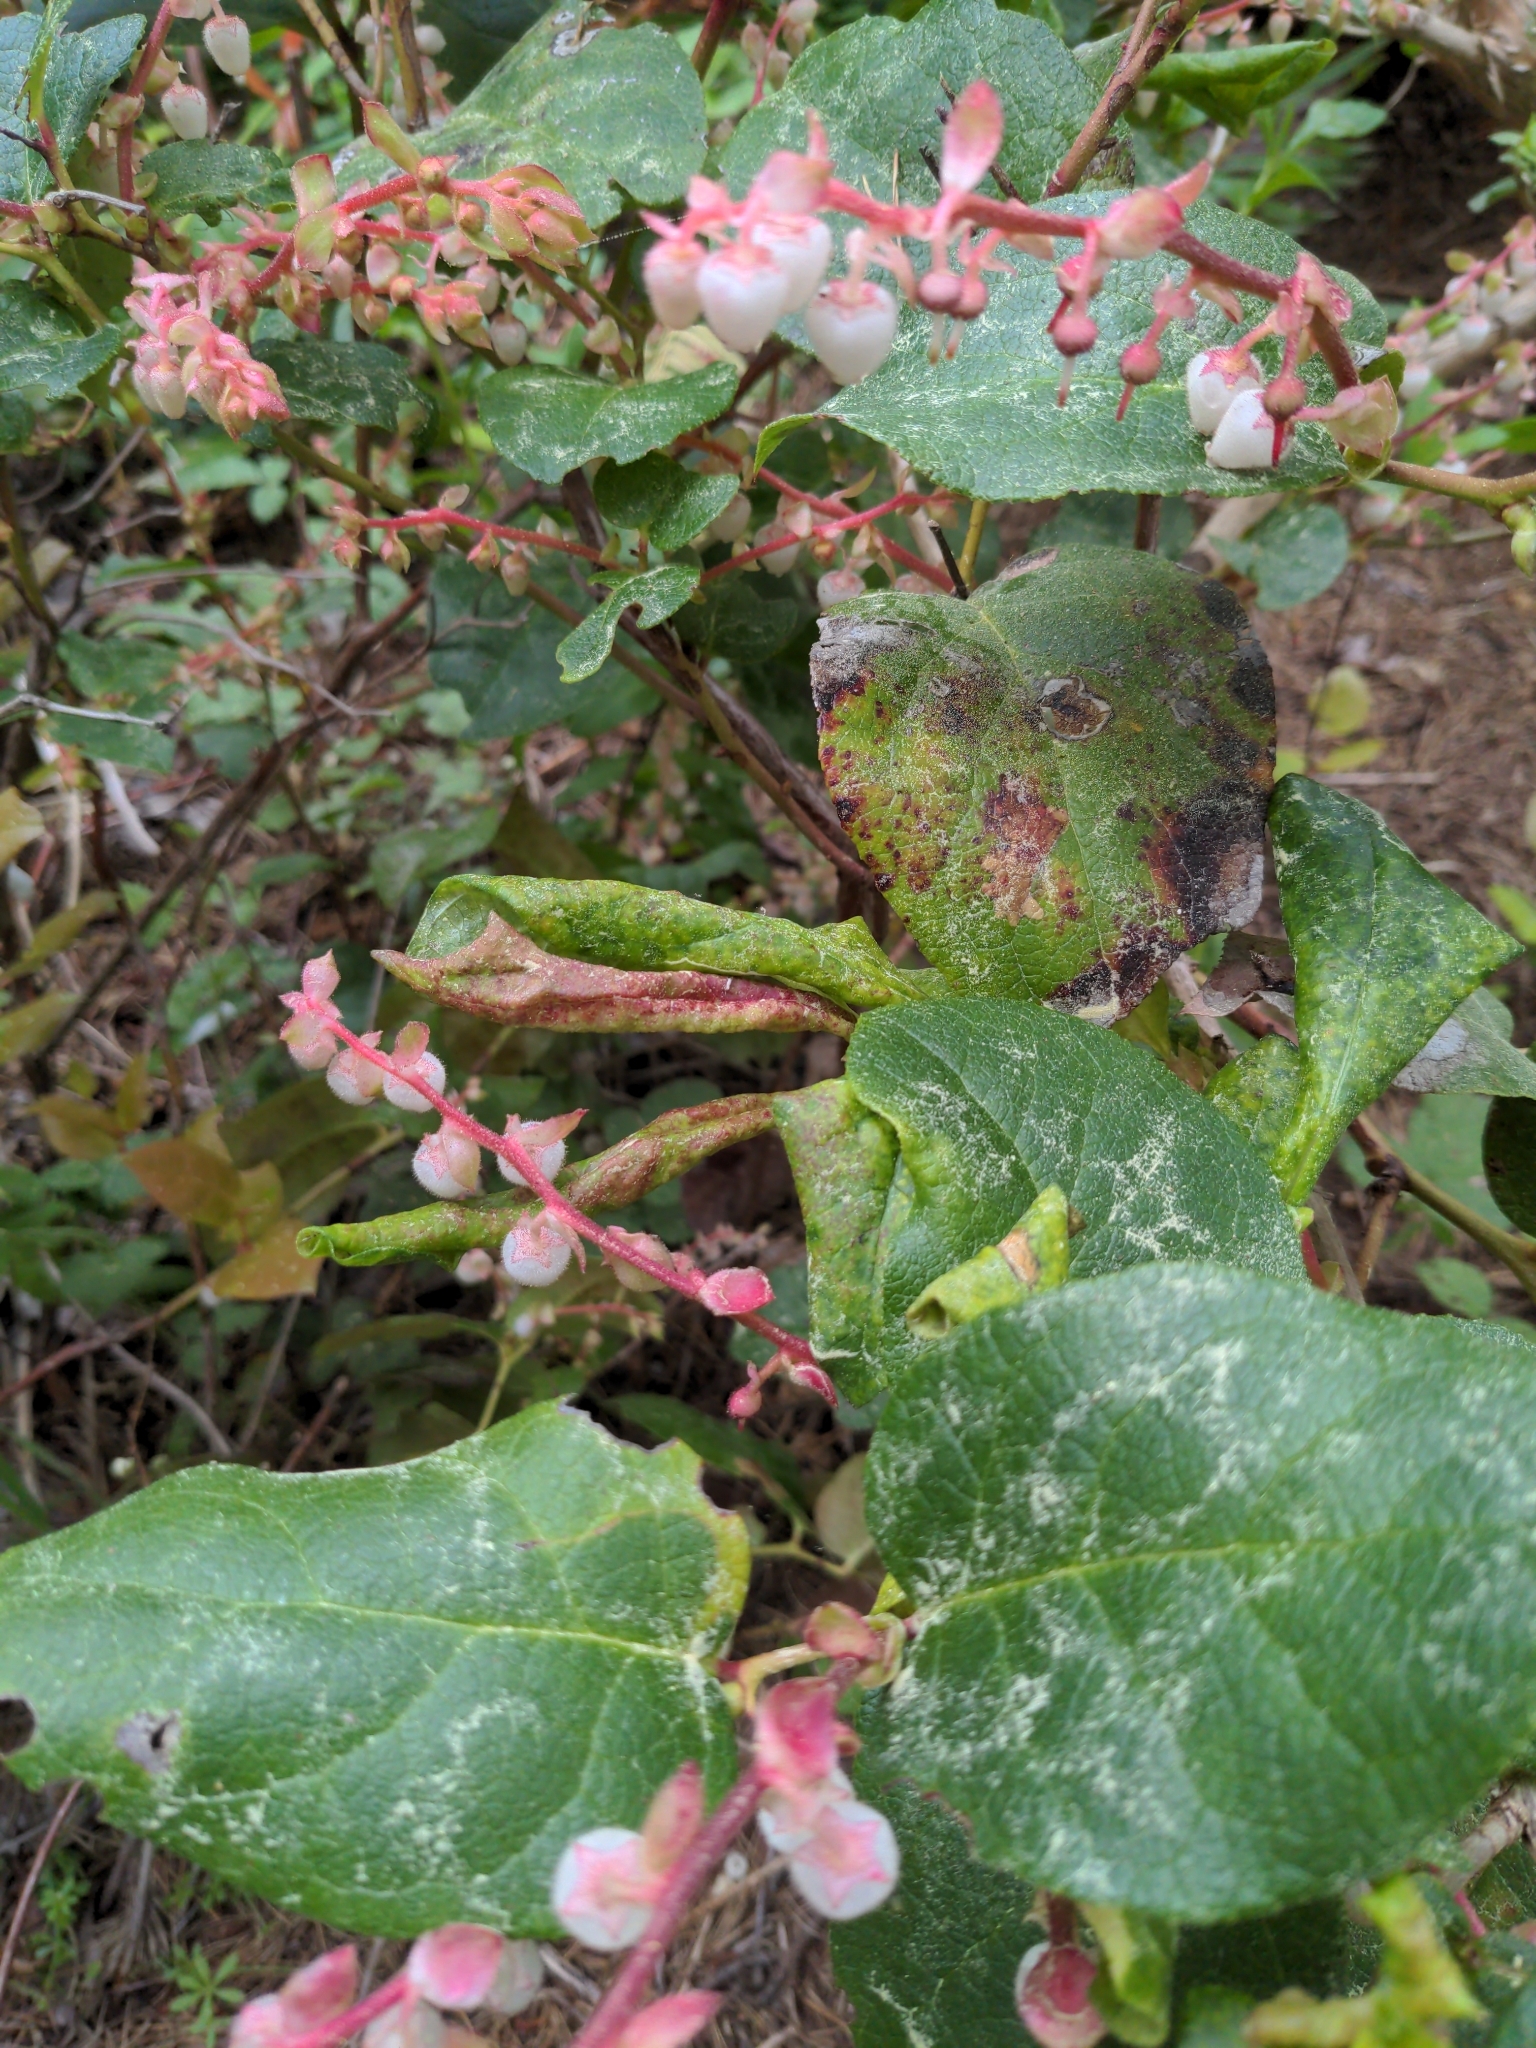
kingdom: Plantae
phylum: Tracheophyta
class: Magnoliopsida
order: Ericales
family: Ericaceae
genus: Gaultheria
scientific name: Gaultheria shallon
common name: Shallon
